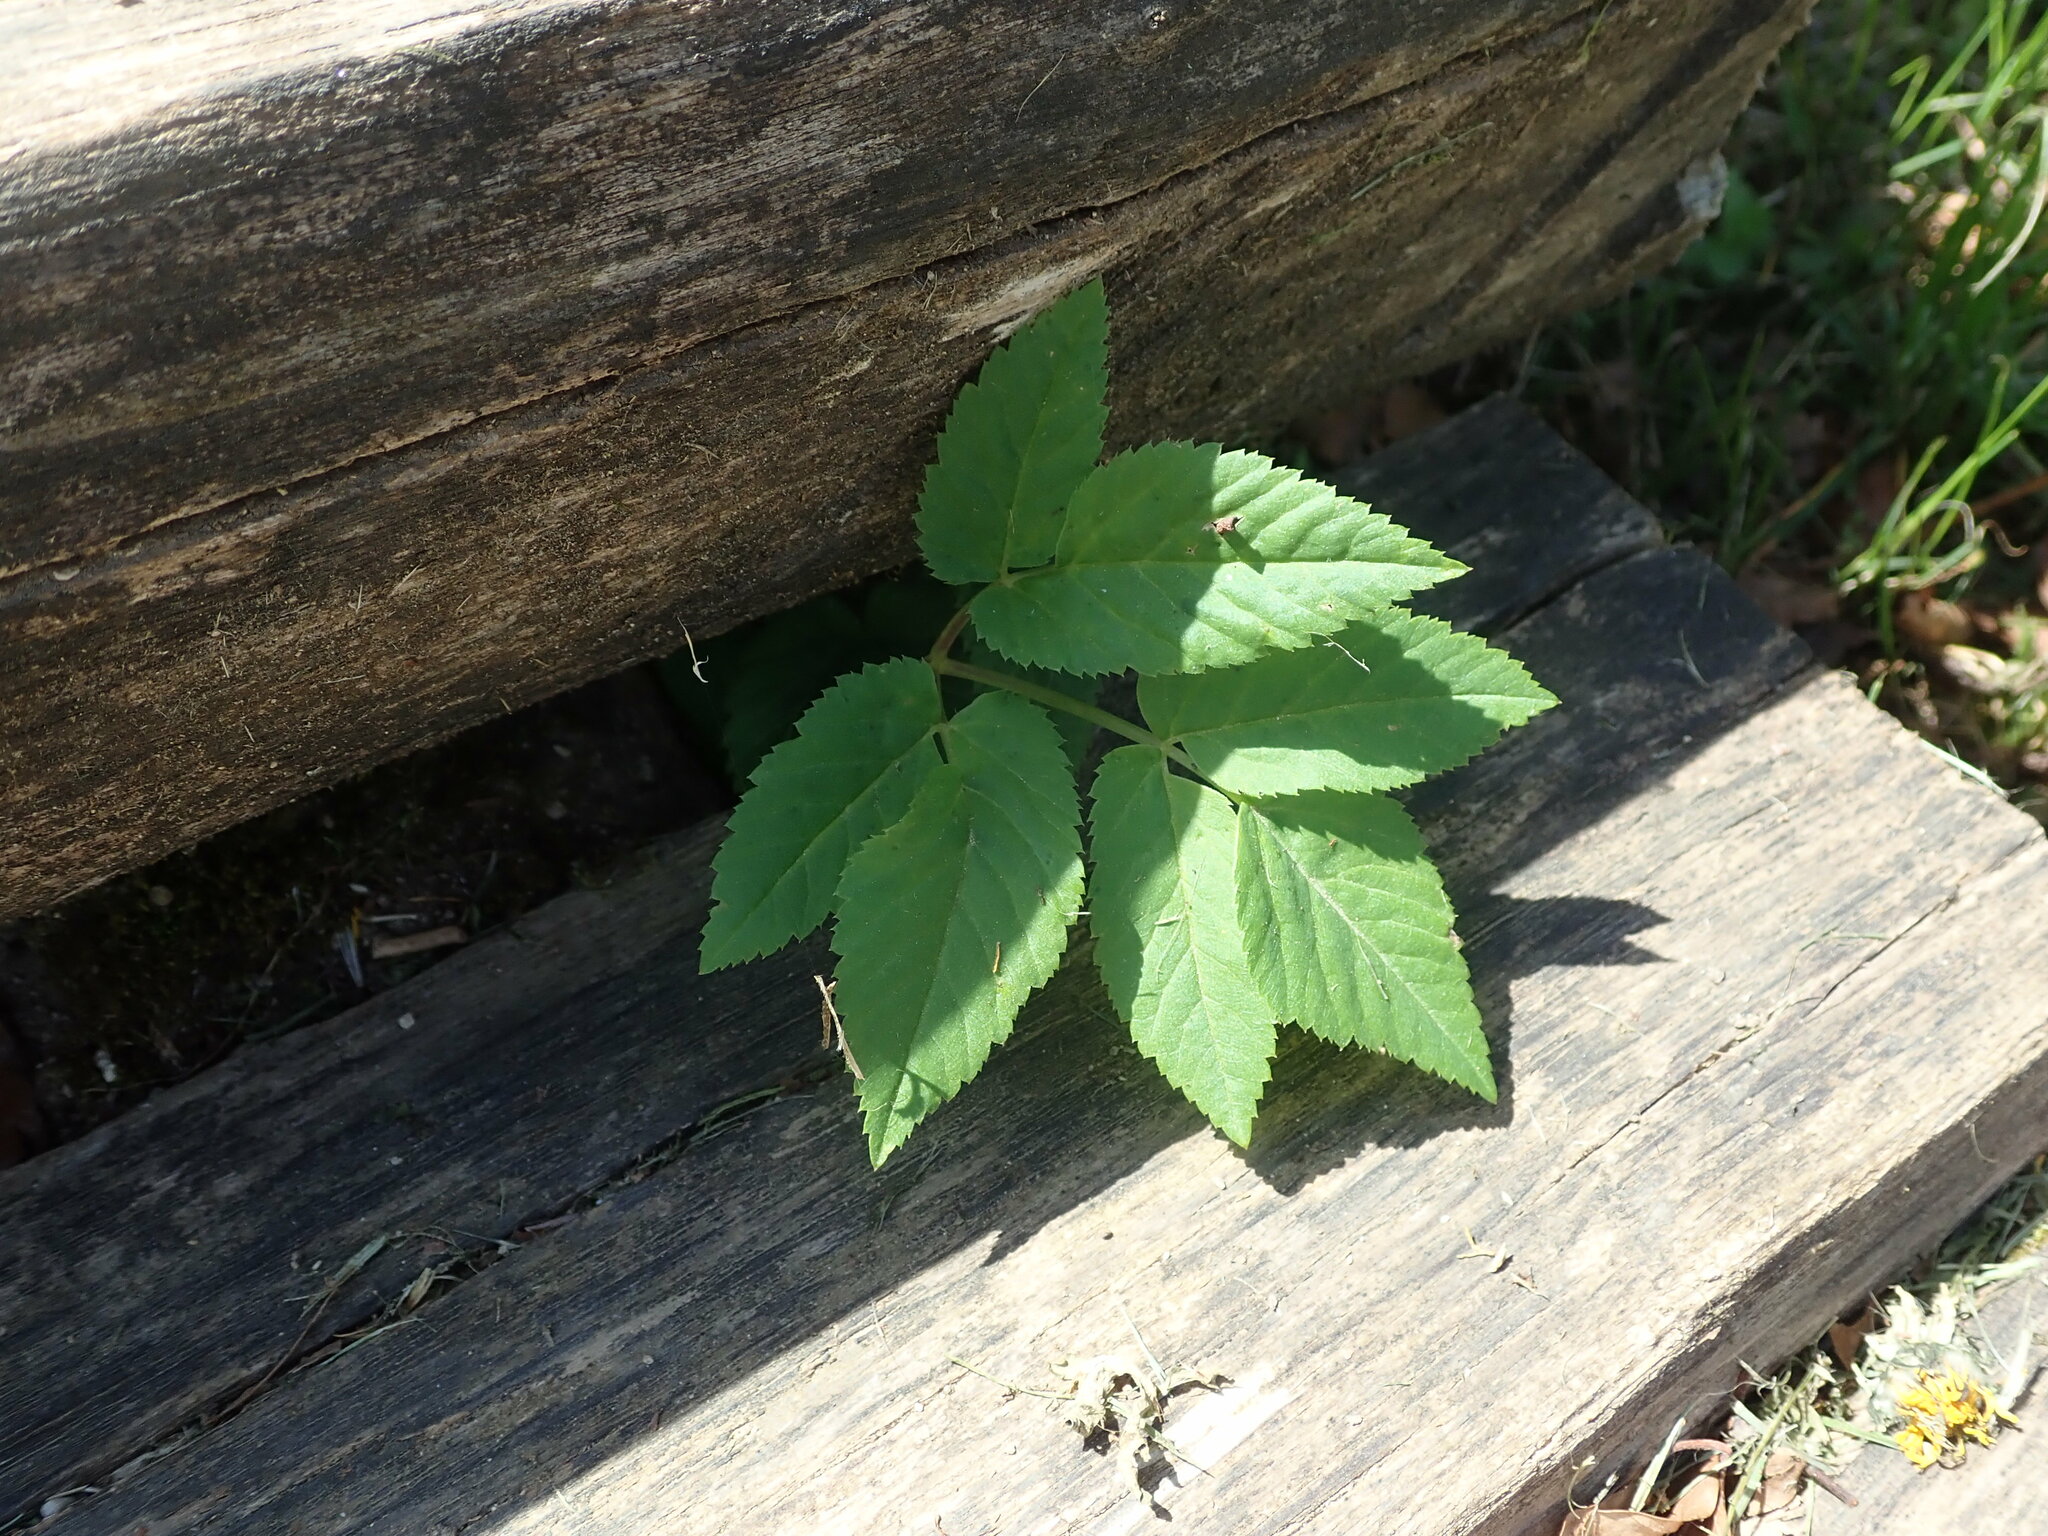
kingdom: Plantae
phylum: Tracheophyta
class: Magnoliopsida
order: Apiales
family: Apiaceae
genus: Aegopodium
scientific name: Aegopodium podagraria
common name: Ground-elder
